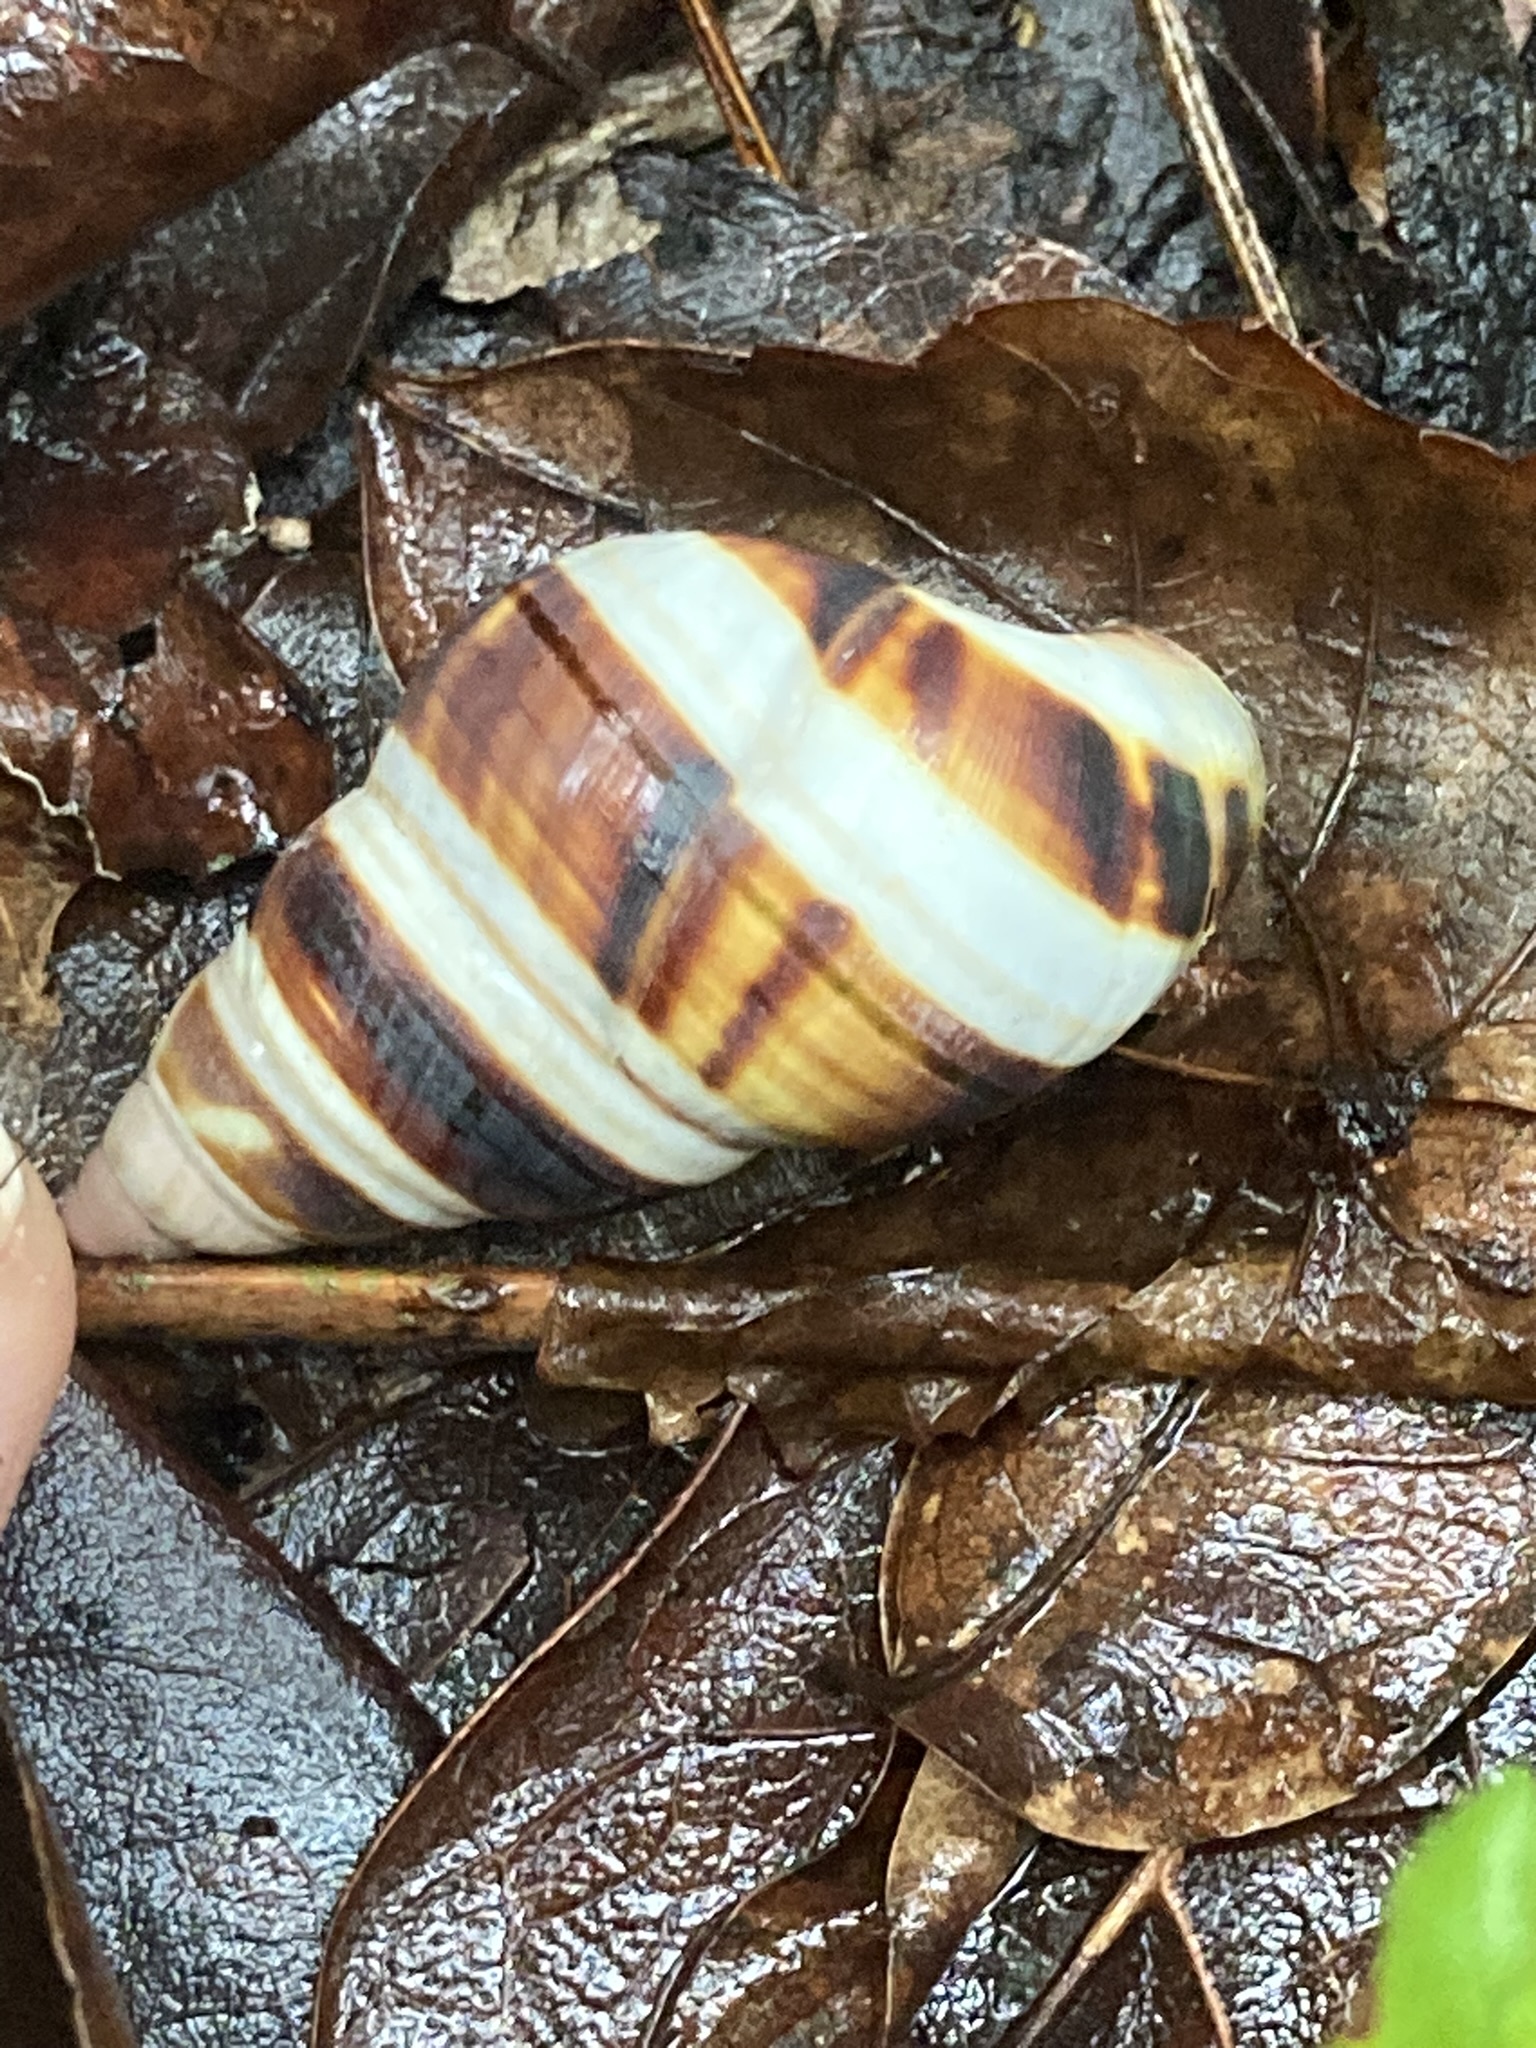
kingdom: Animalia
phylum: Mollusca
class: Gastropoda
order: Stylommatophora
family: Orthalicidae
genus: Liguus
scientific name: Liguus fasciatus
